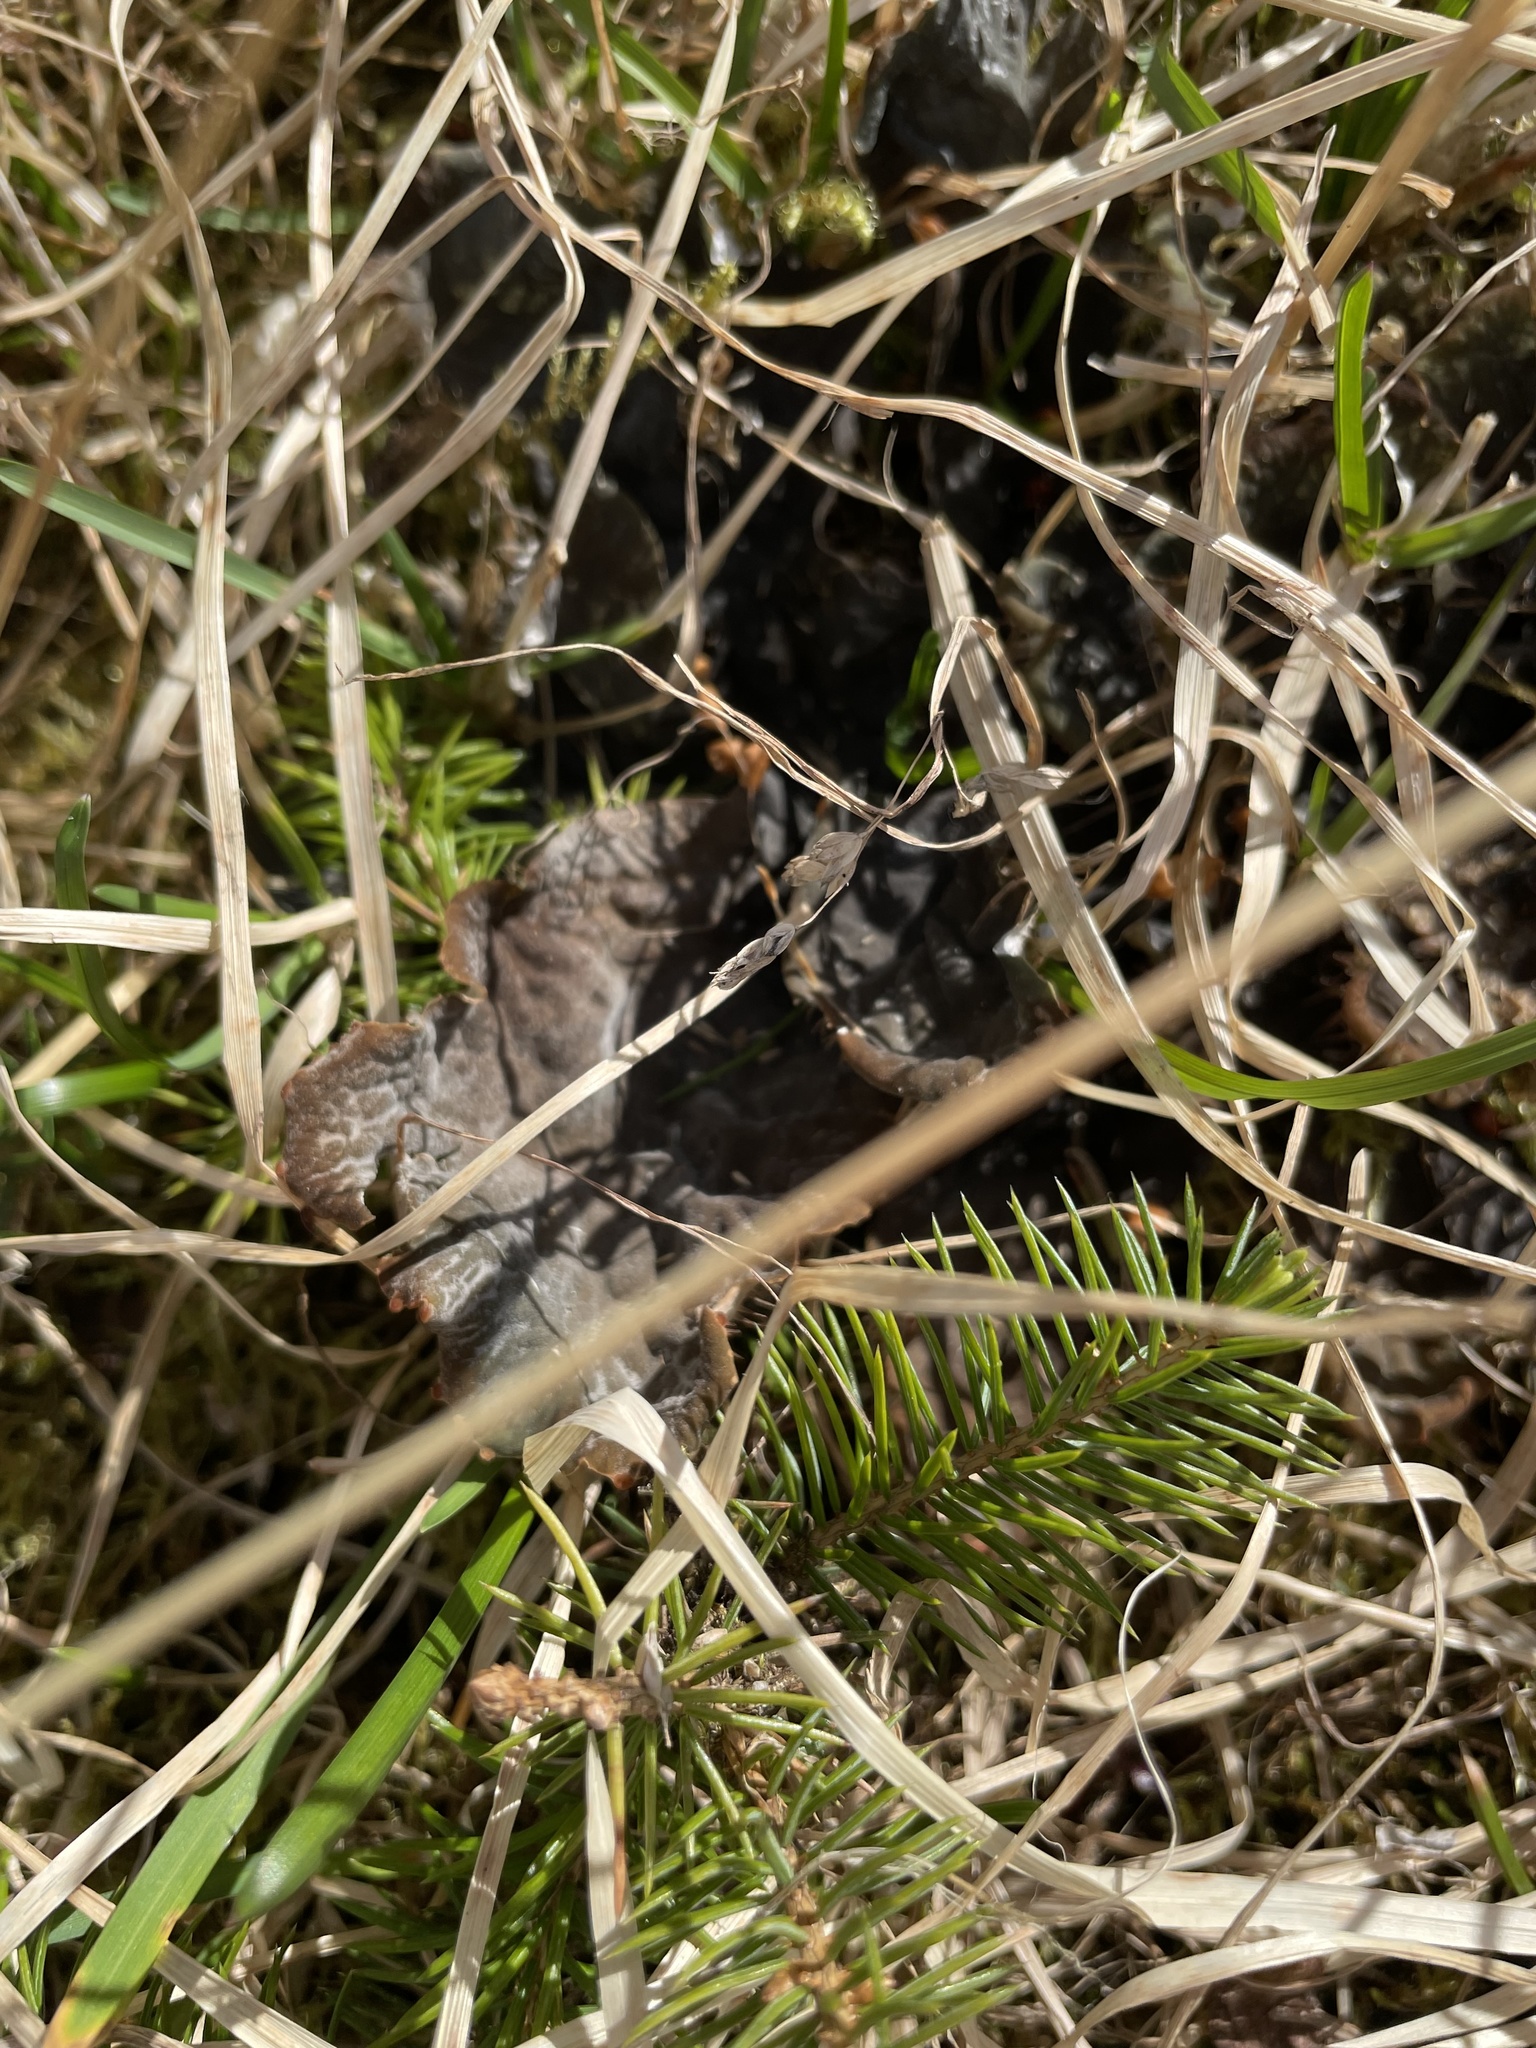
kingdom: Fungi
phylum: Ascomycota
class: Lecanoromycetes
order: Peltigerales
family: Peltigeraceae
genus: Peltigera
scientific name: Peltigera membranacea
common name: Membranous pelt lichen
